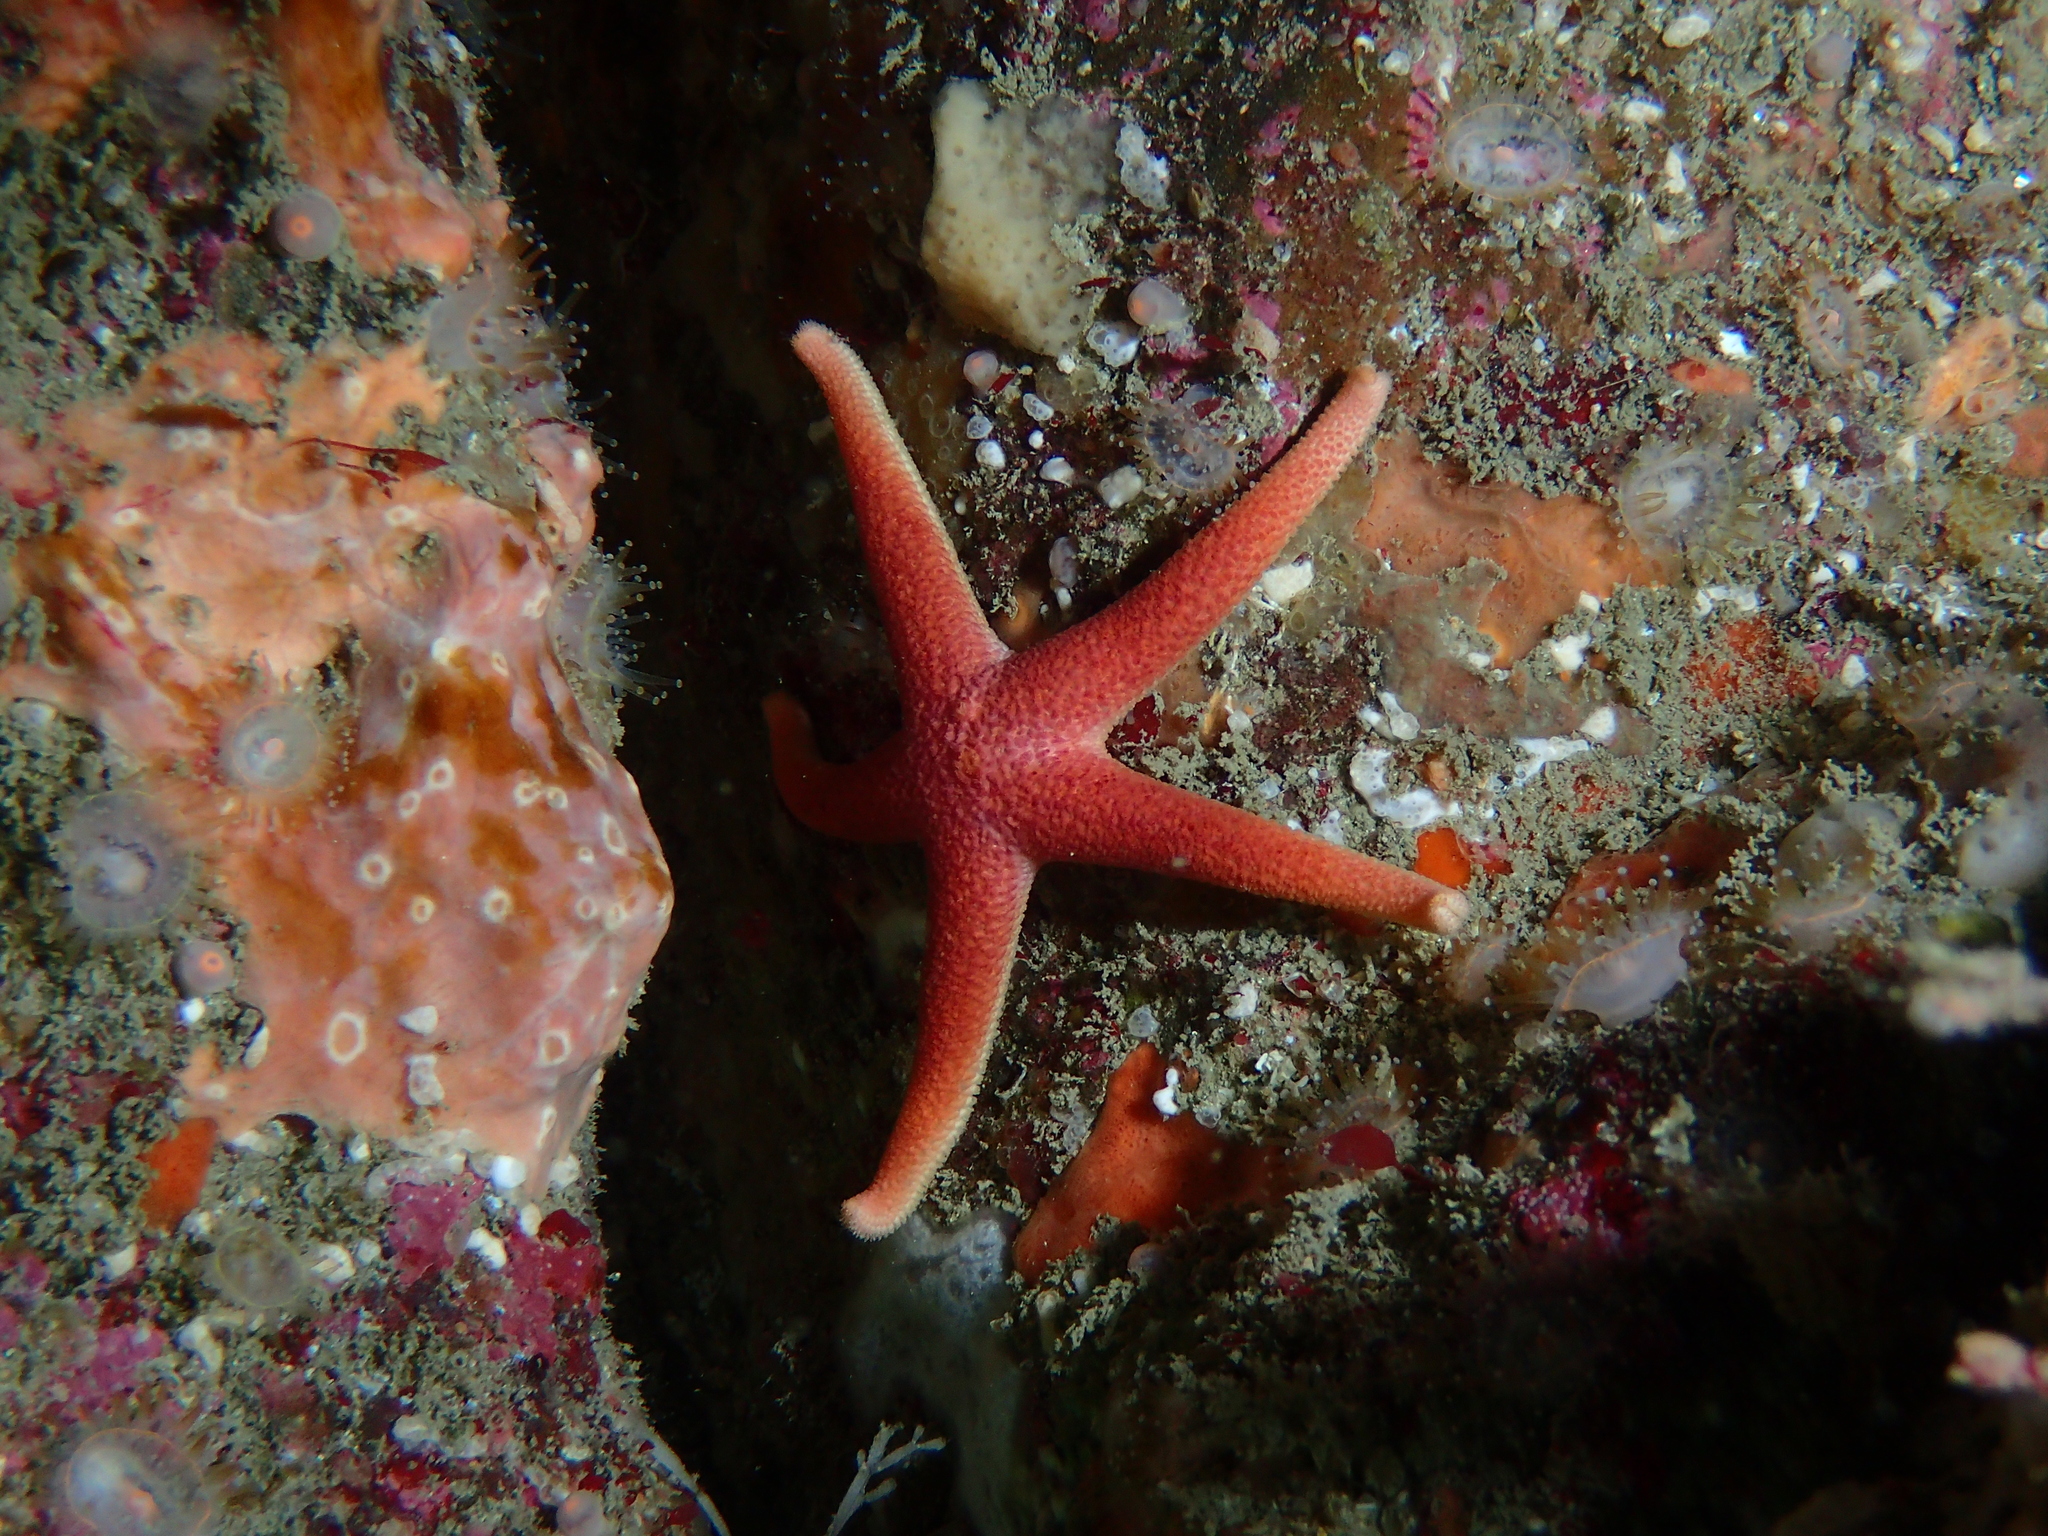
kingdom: Animalia
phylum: Echinodermata
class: Asteroidea
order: Spinulosida
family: Echinasteridae
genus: Henricia
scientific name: Henricia oculata
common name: Bloody henry starfish
